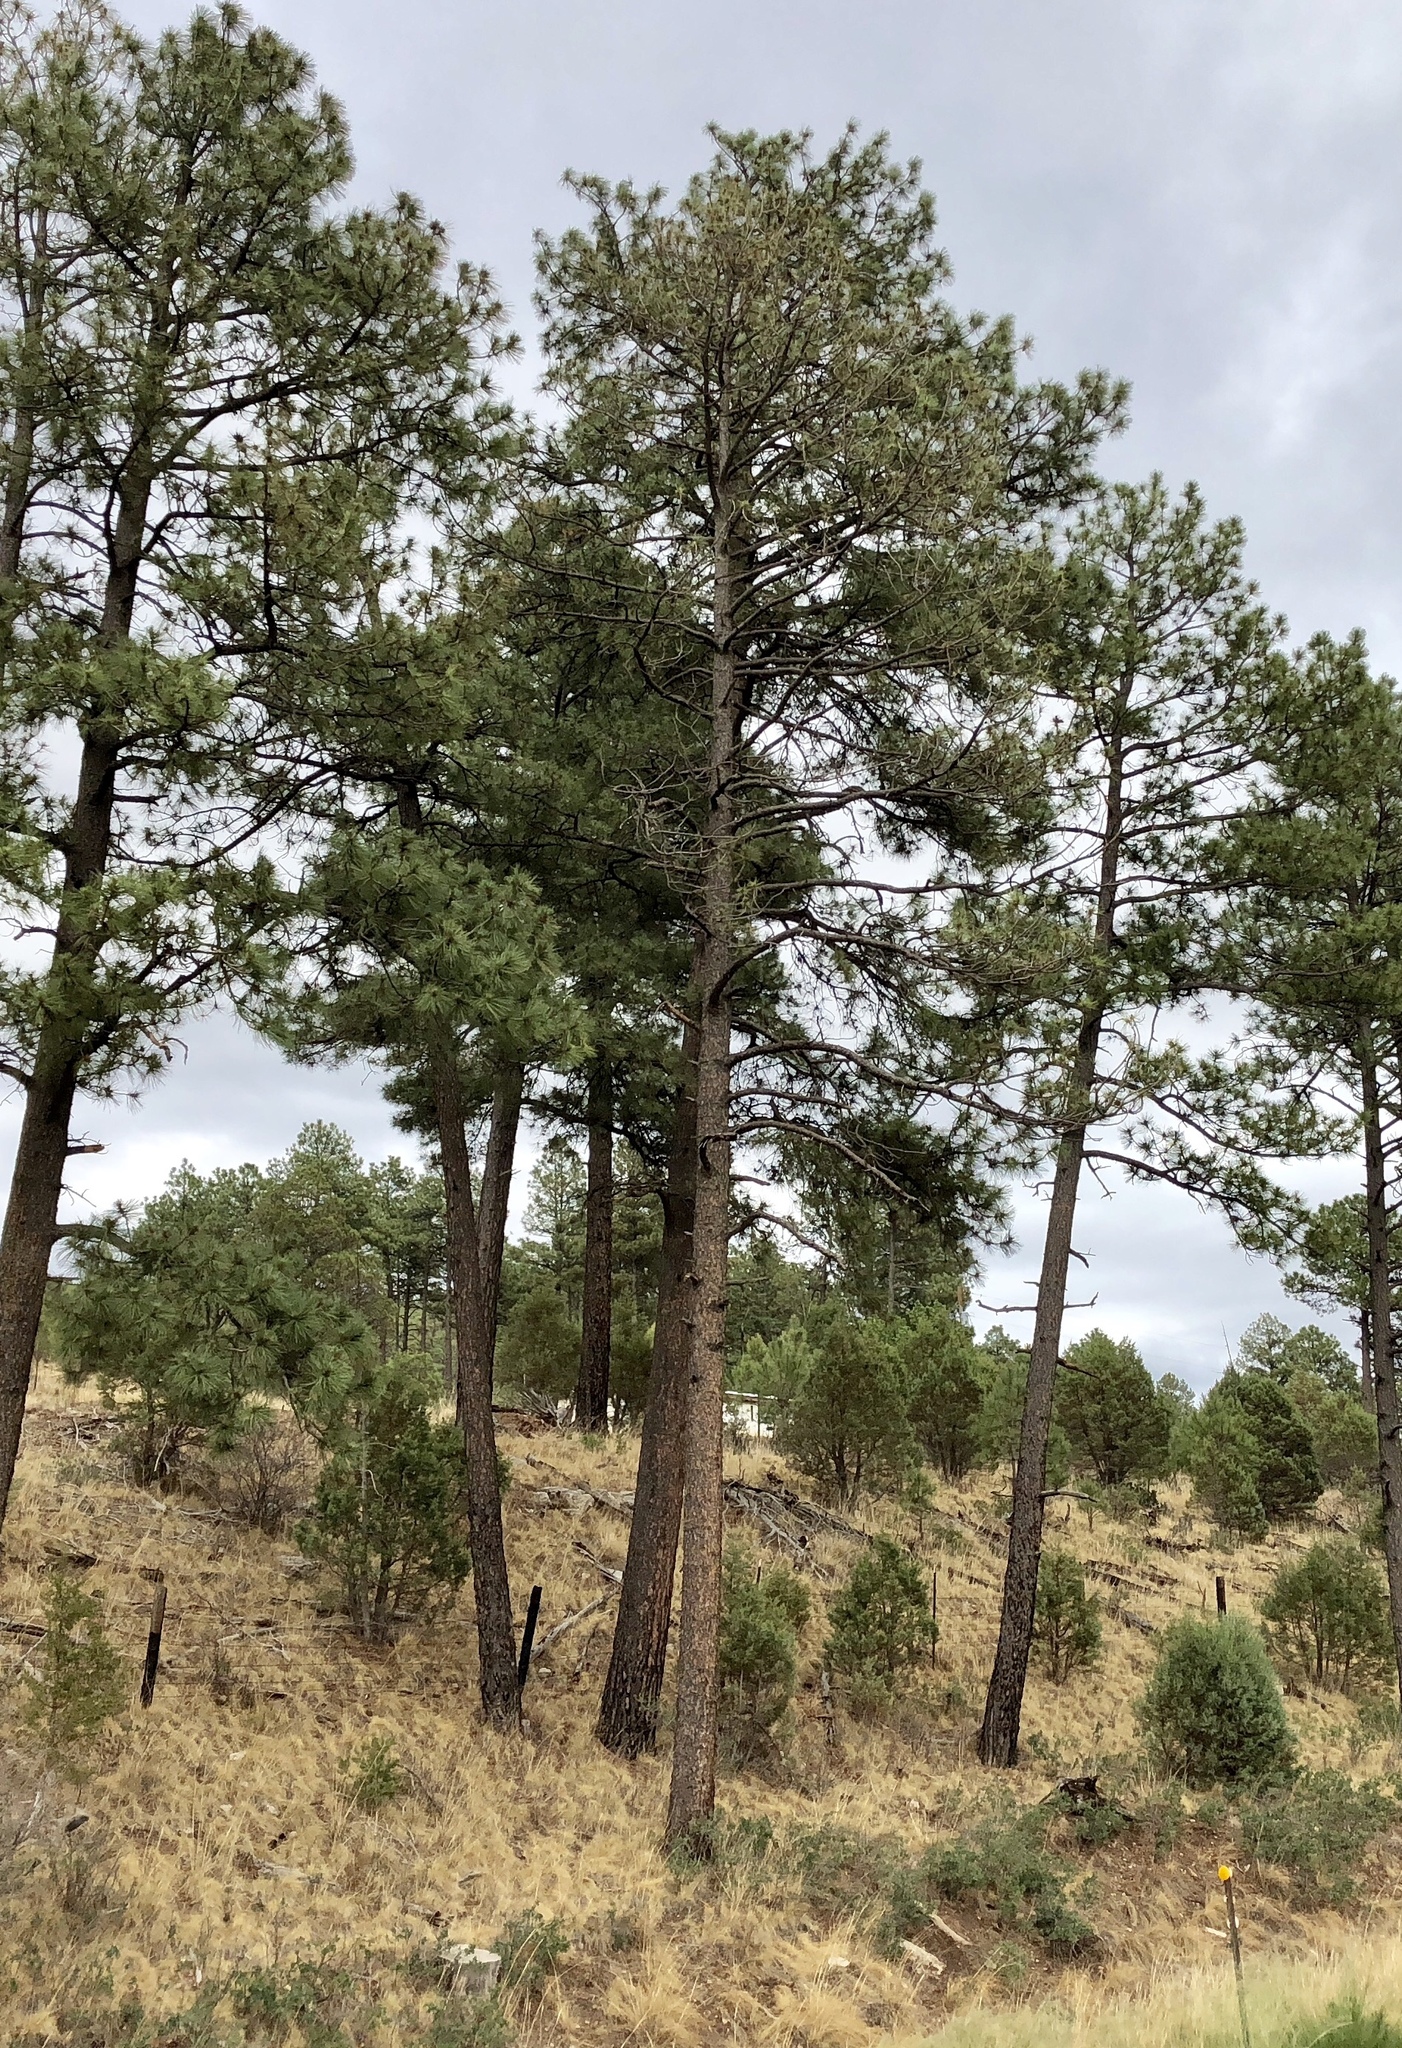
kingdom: Plantae
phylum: Tracheophyta
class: Pinopsida
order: Pinales
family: Pinaceae
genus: Pinus
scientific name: Pinus ponderosa
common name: Western yellow-pine
